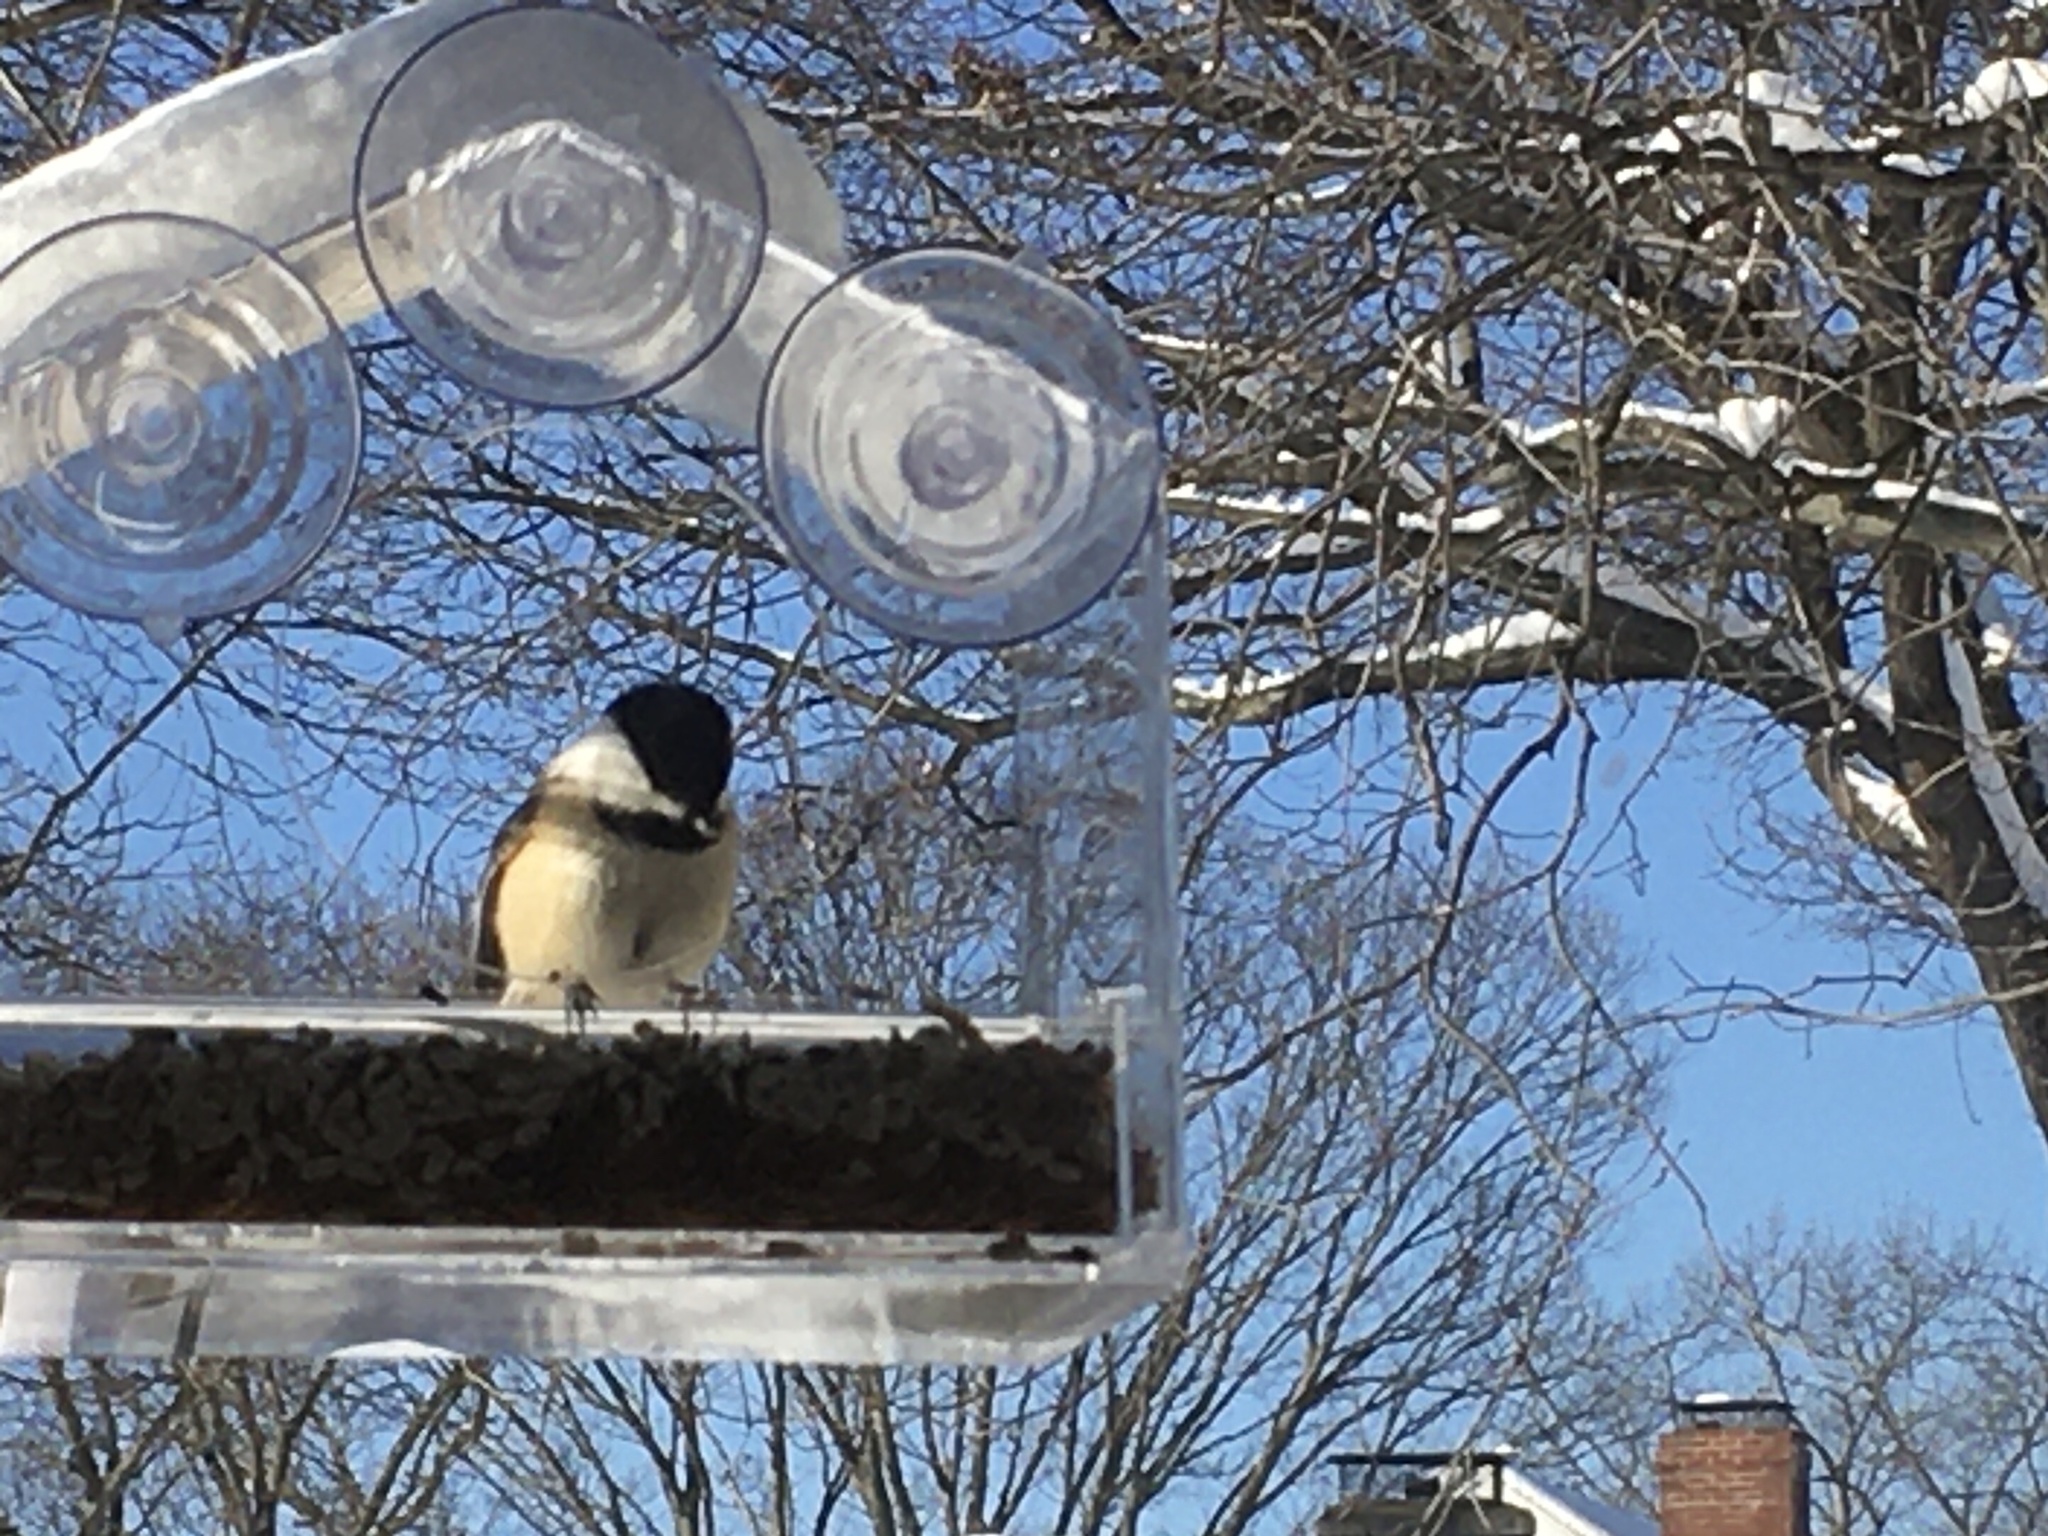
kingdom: Animalia
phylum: Chordata
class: Aves
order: Passeriformes
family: Paridae
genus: Poecile
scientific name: Poecile atricapillus
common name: Black-capped chickadee
